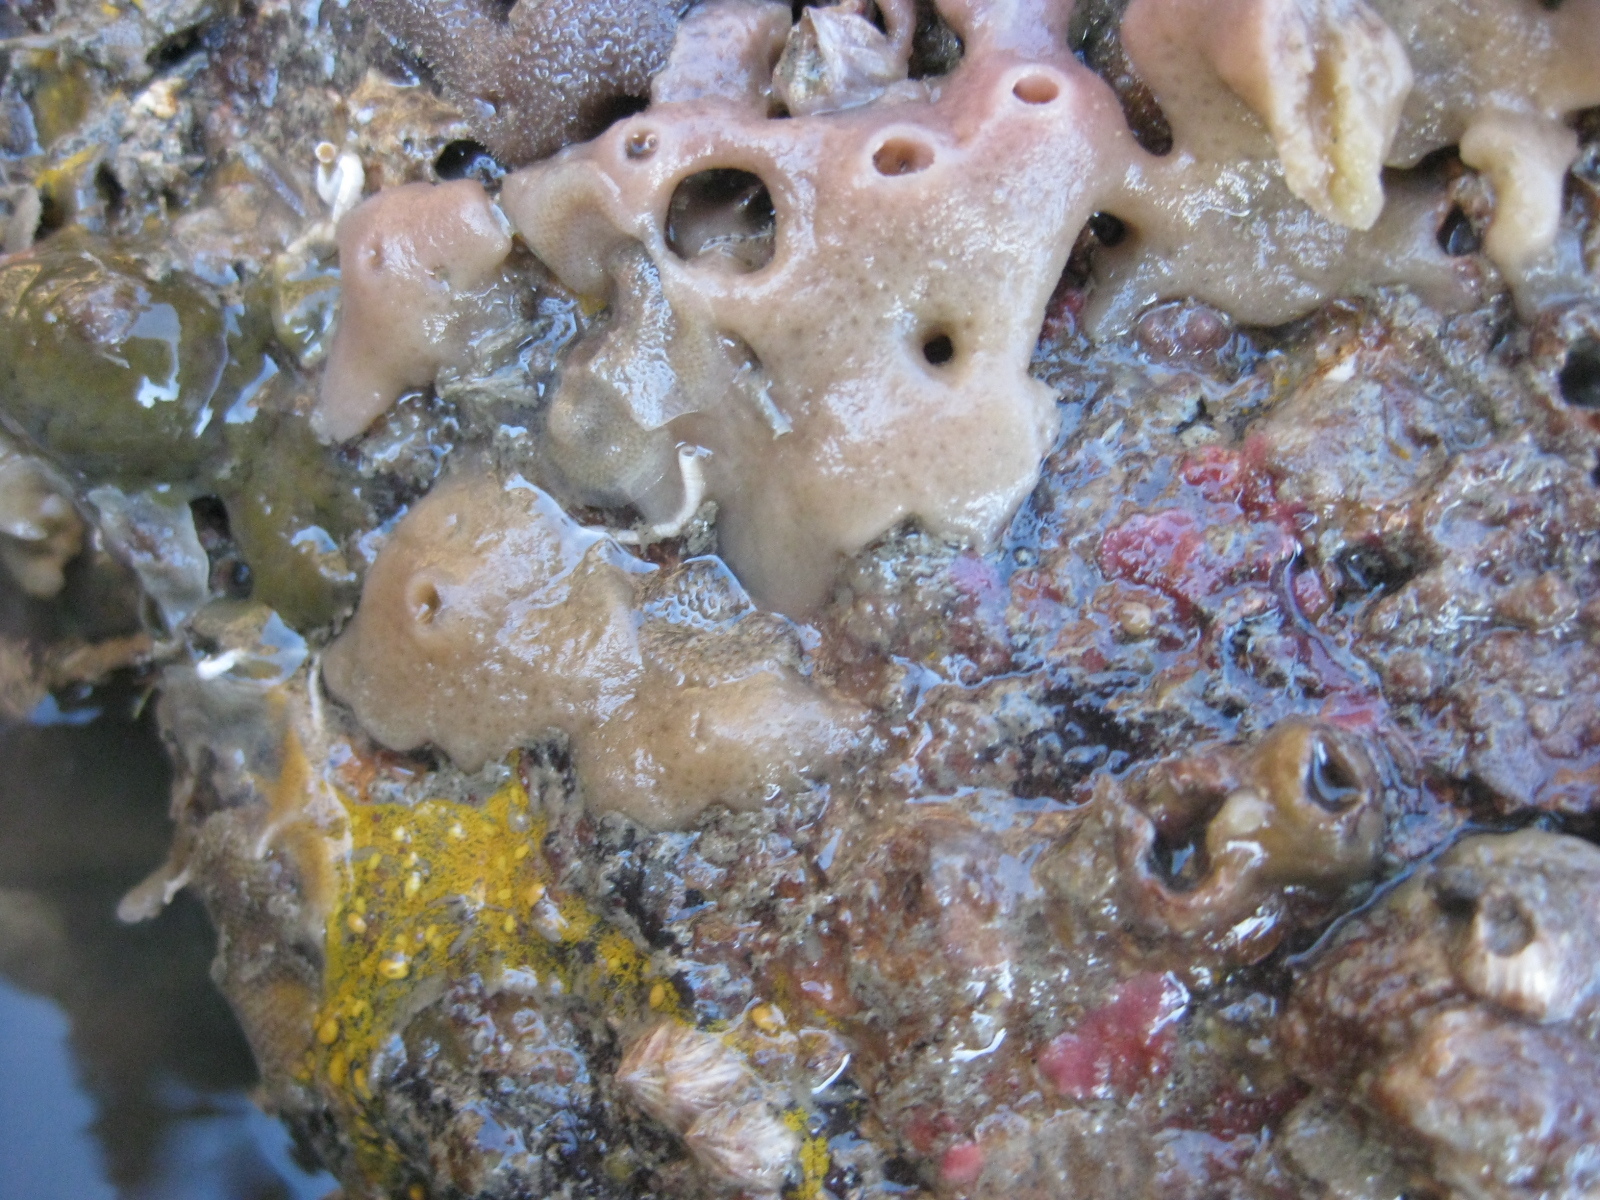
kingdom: Animalia
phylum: Porifera
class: Demospongiae
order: Haplosclerida
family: Chalinidae
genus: Haliclona
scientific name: Haliclona venustina
